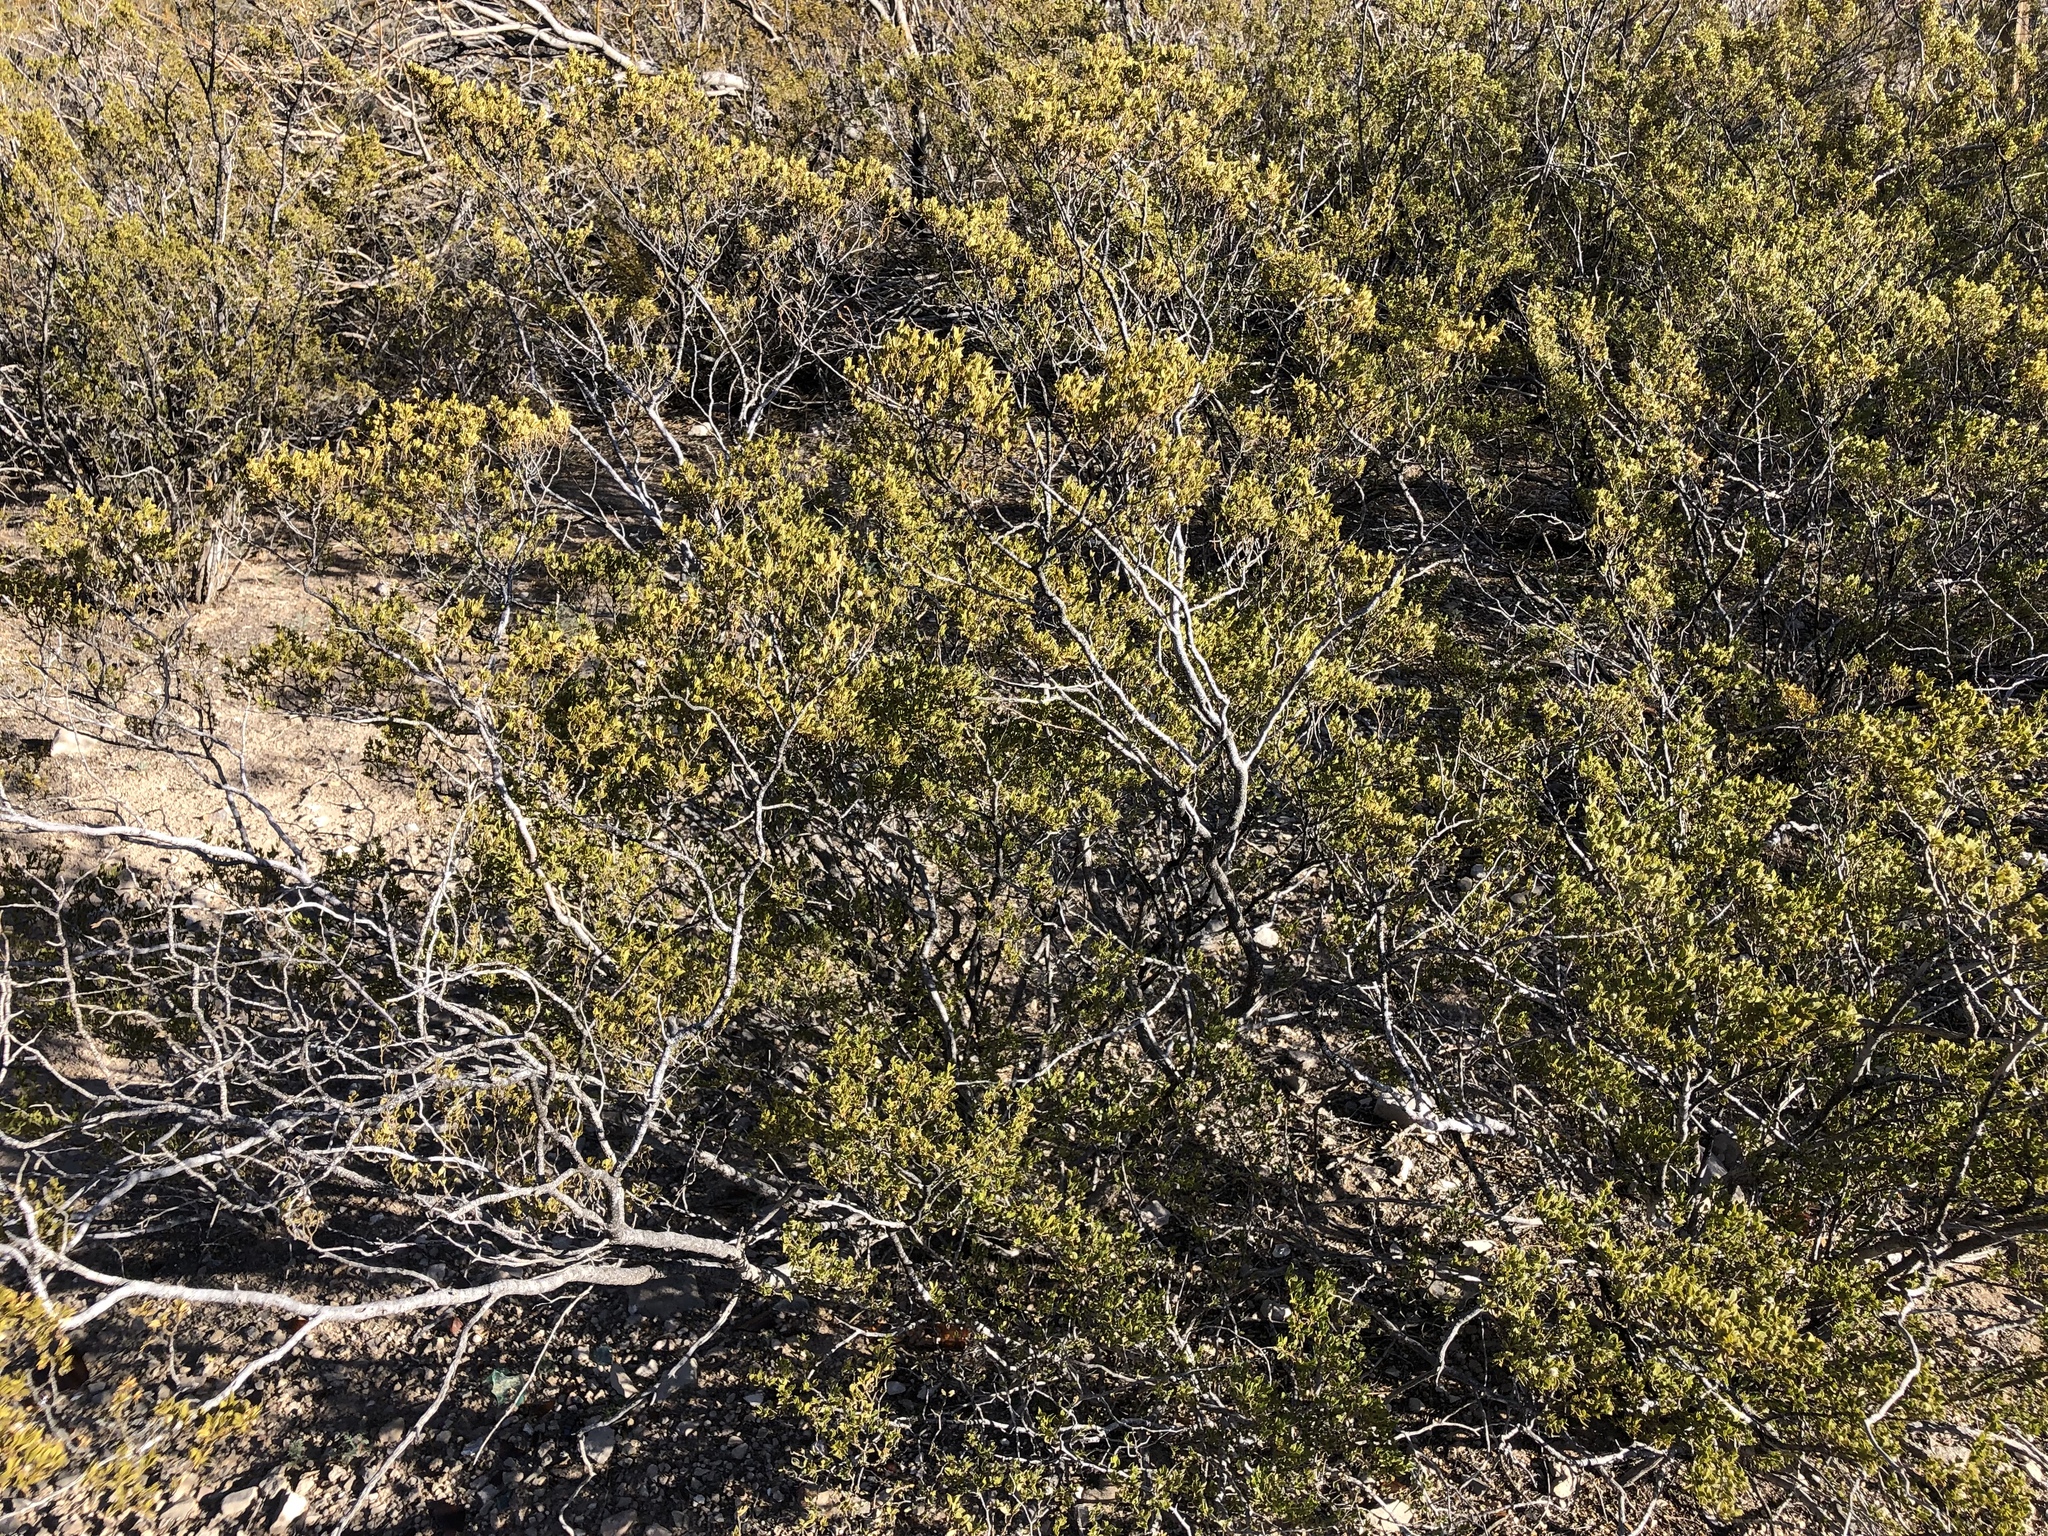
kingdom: Plantae
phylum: Tracheophyta
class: Magnoliopsida
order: Zygophyllales
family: Zygophyllaceae
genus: Larrea
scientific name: Larrea tridentata
